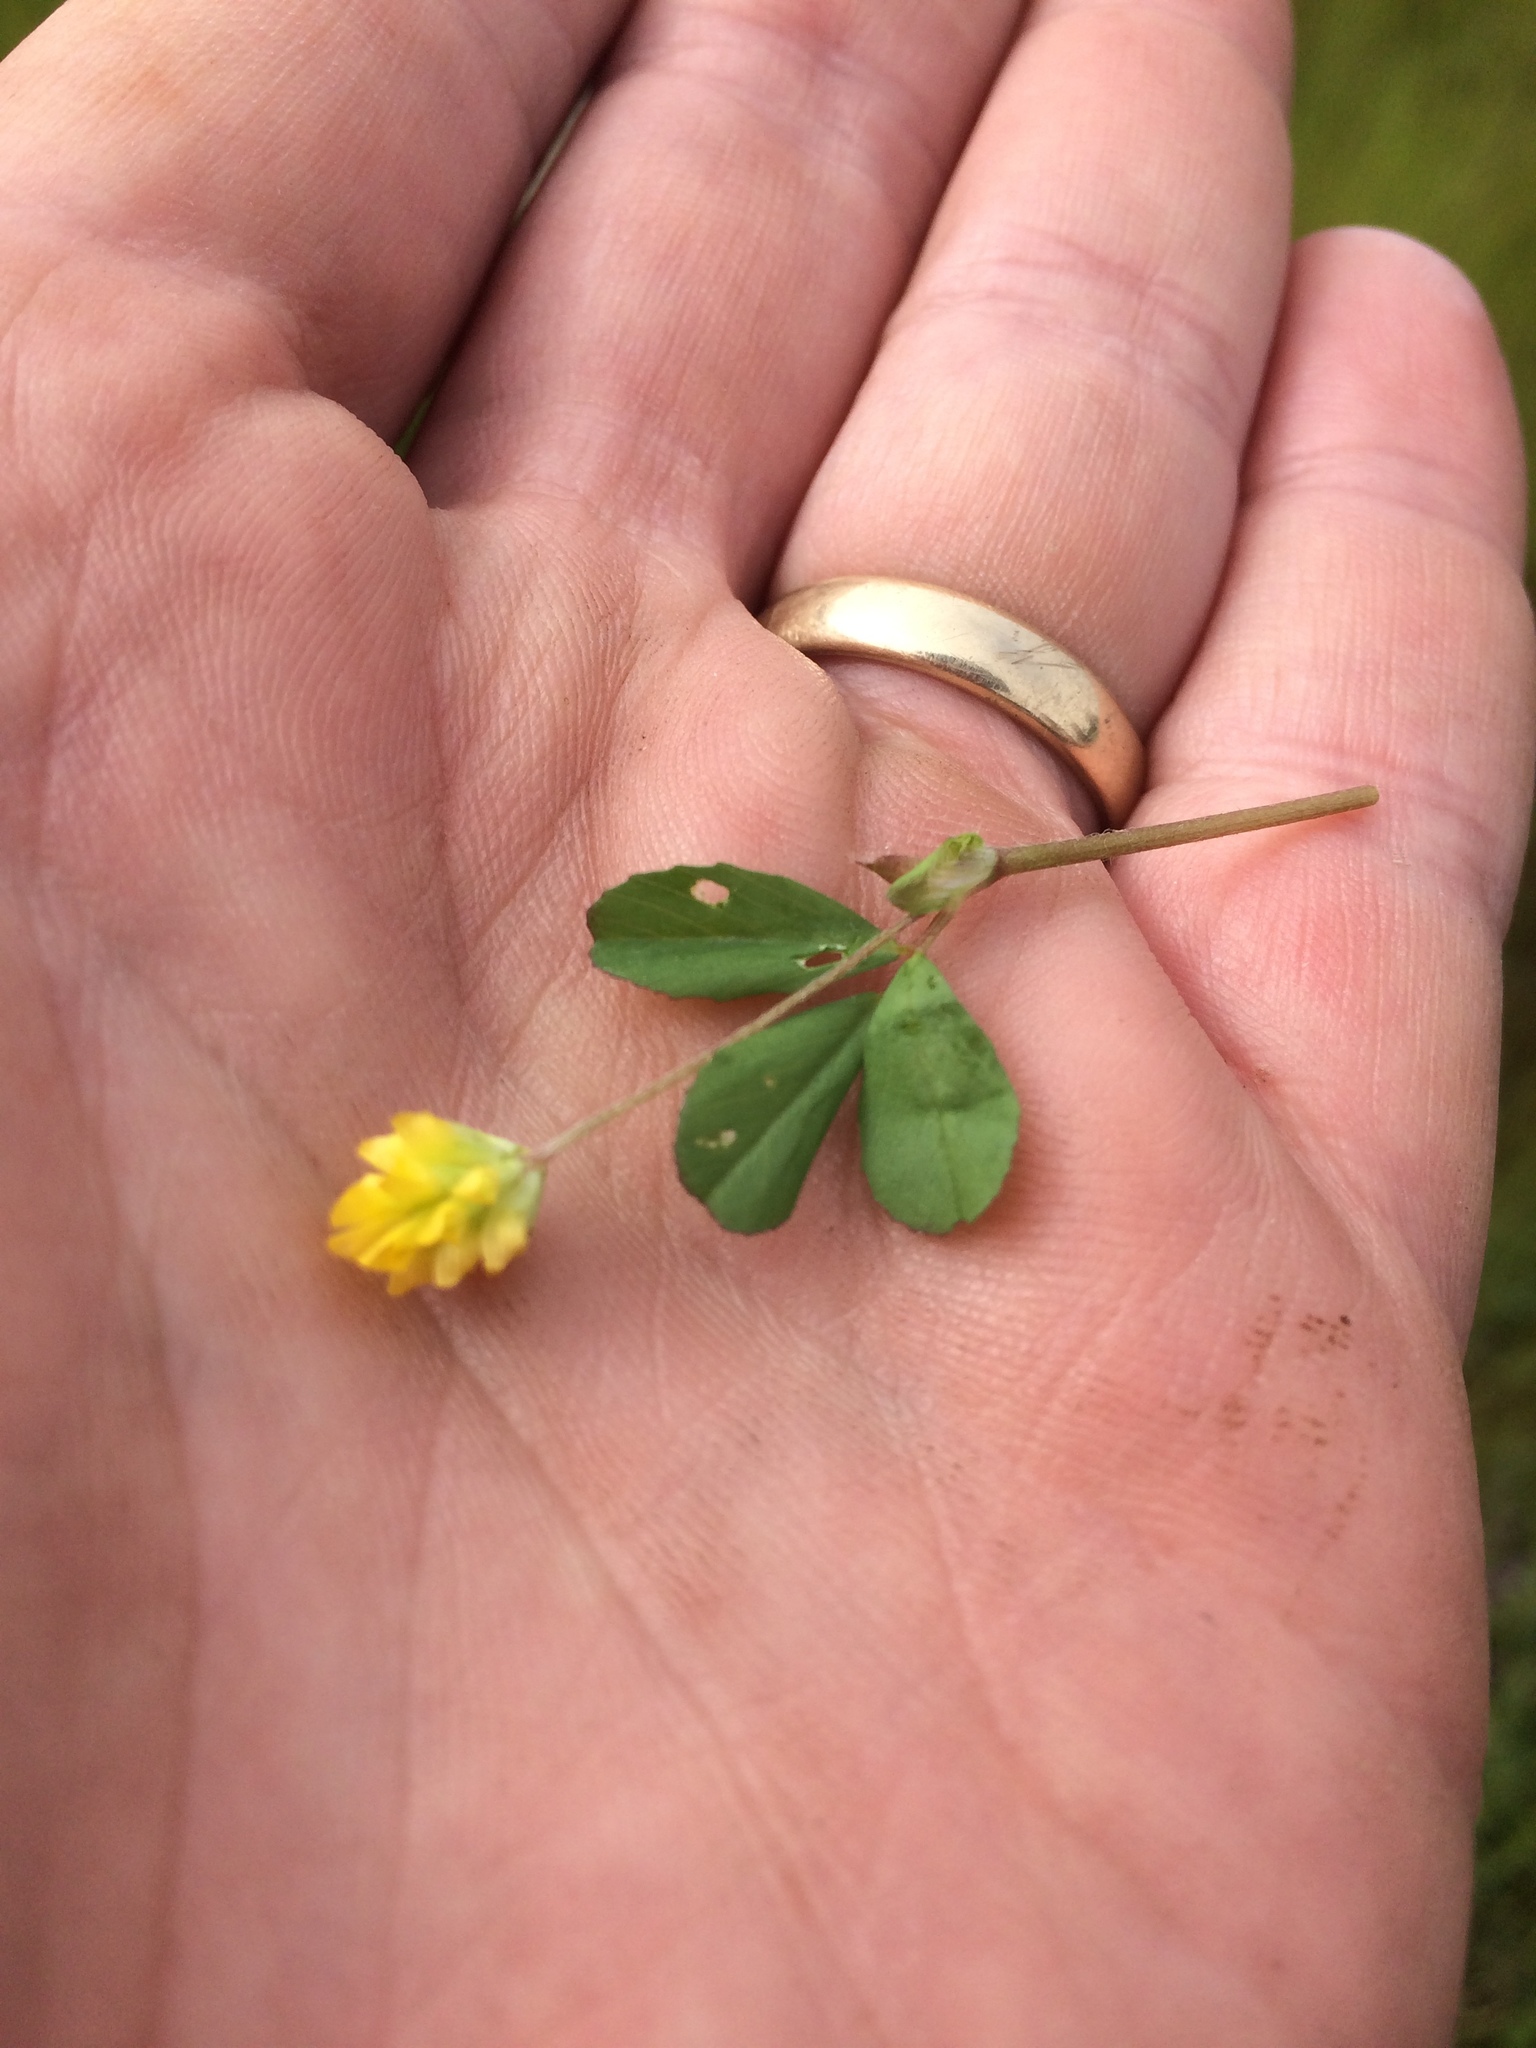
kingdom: Plantae
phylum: Tracheophyta
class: Magnoliopsida
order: Fabales
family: Fabaceae
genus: Trifolium
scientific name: Trifolium dubium
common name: Suckling clover
